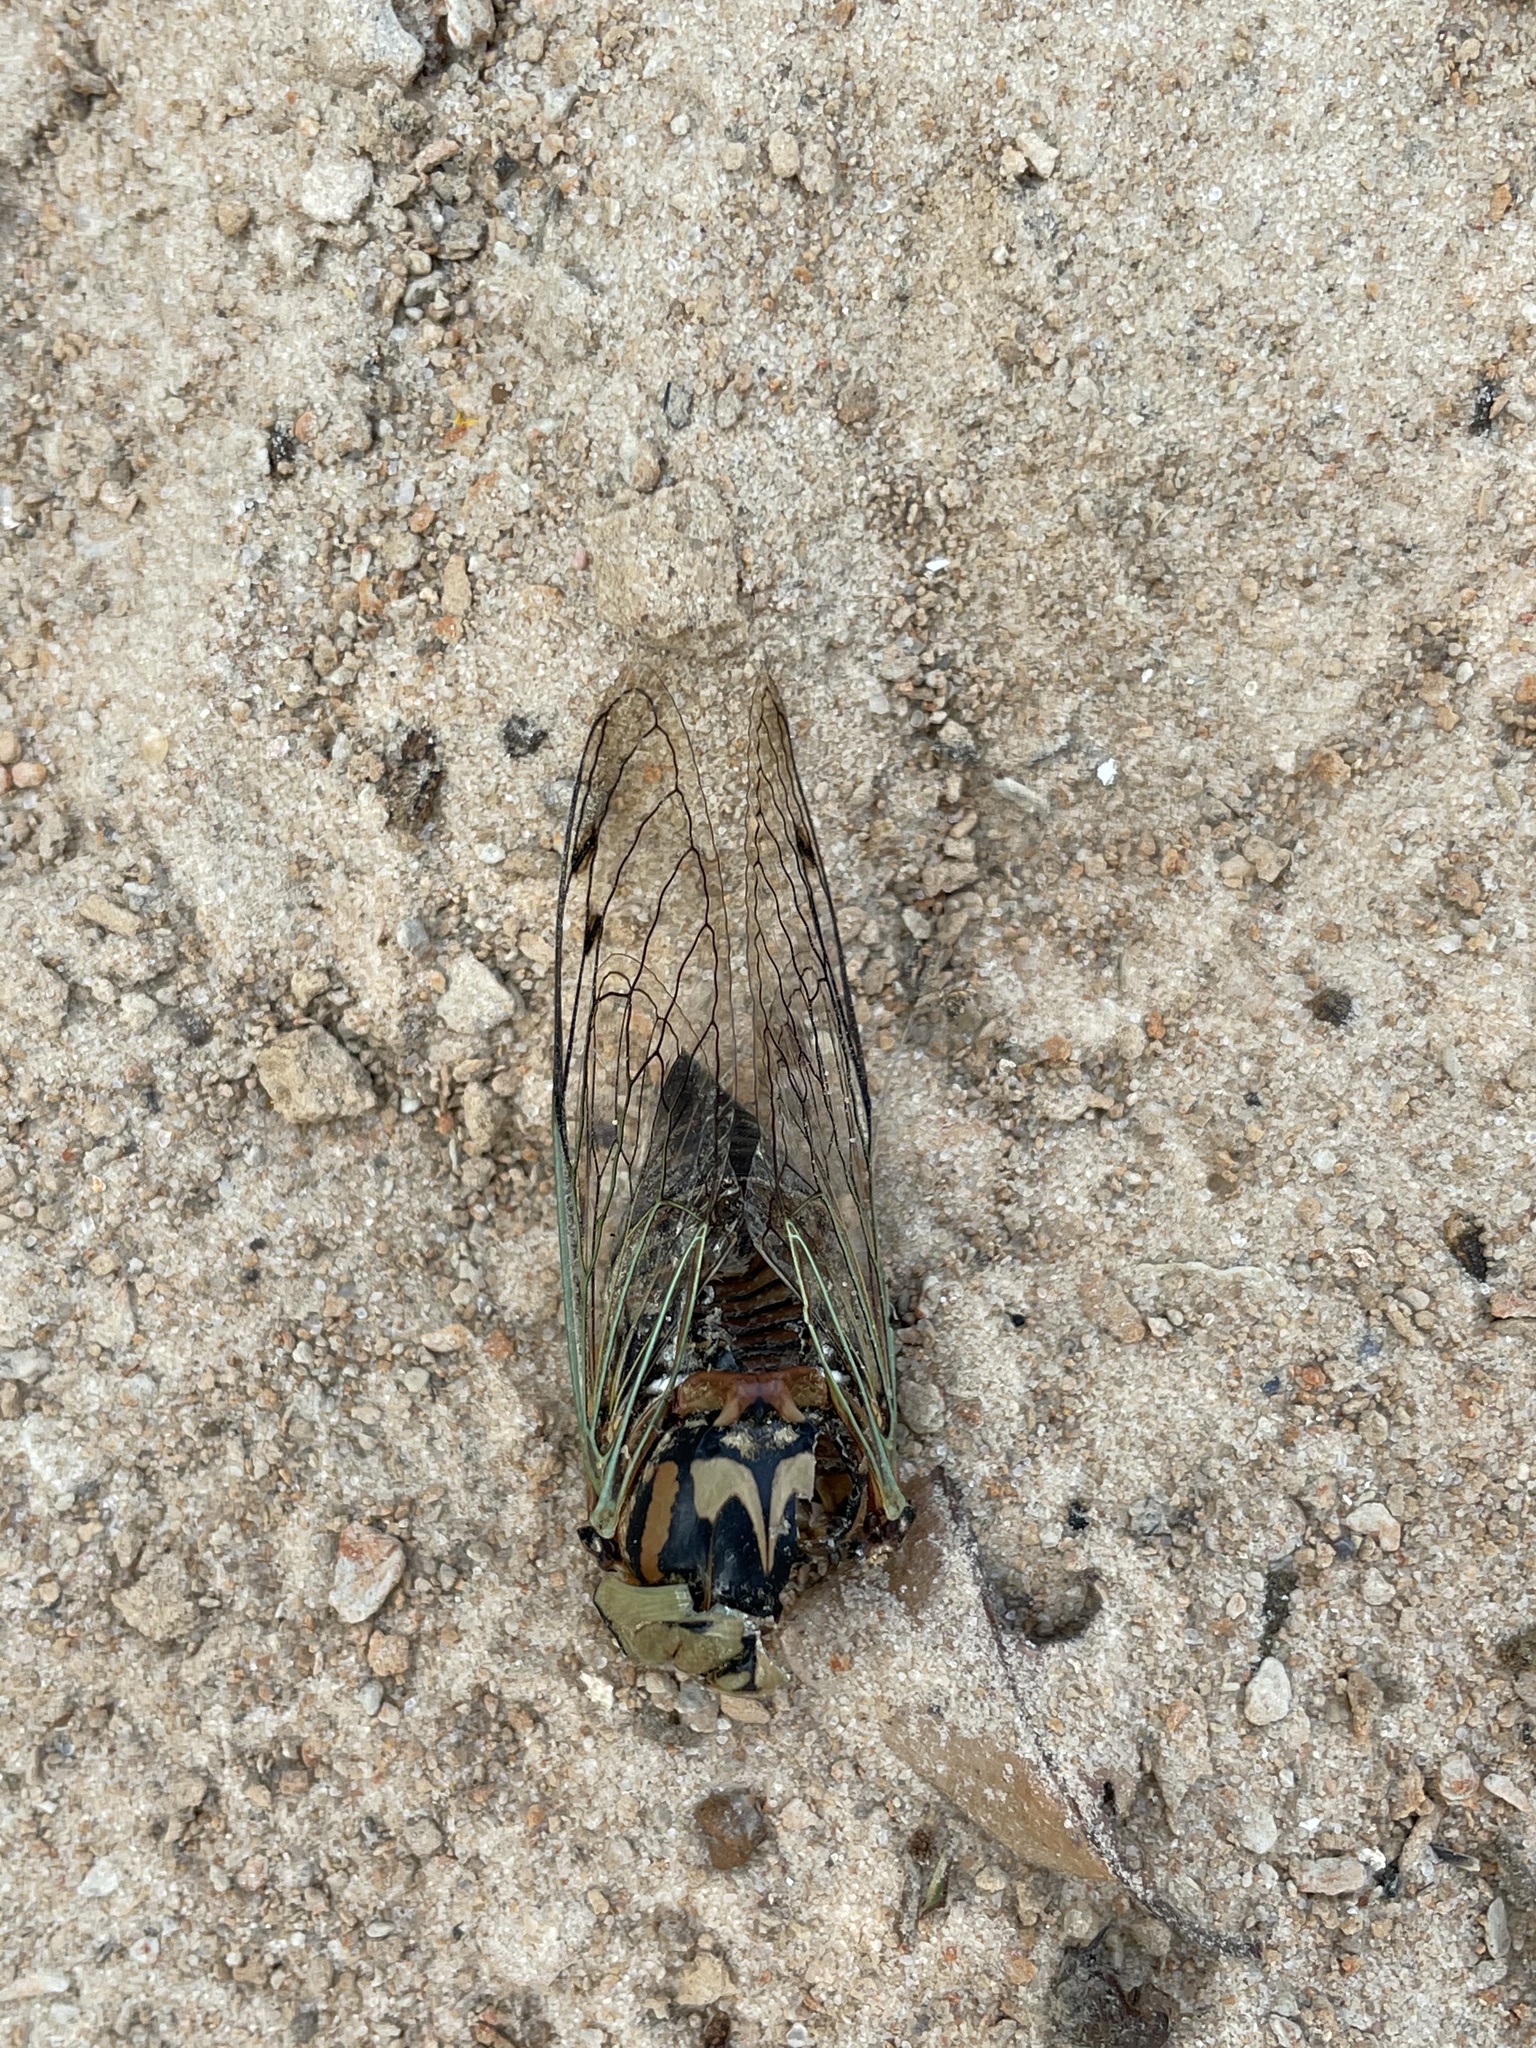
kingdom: Animalia
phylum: Arthropoda
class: Insecta
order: Hemiptera
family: Cicadidae
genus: Megatibicen
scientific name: Megatibicen resh
